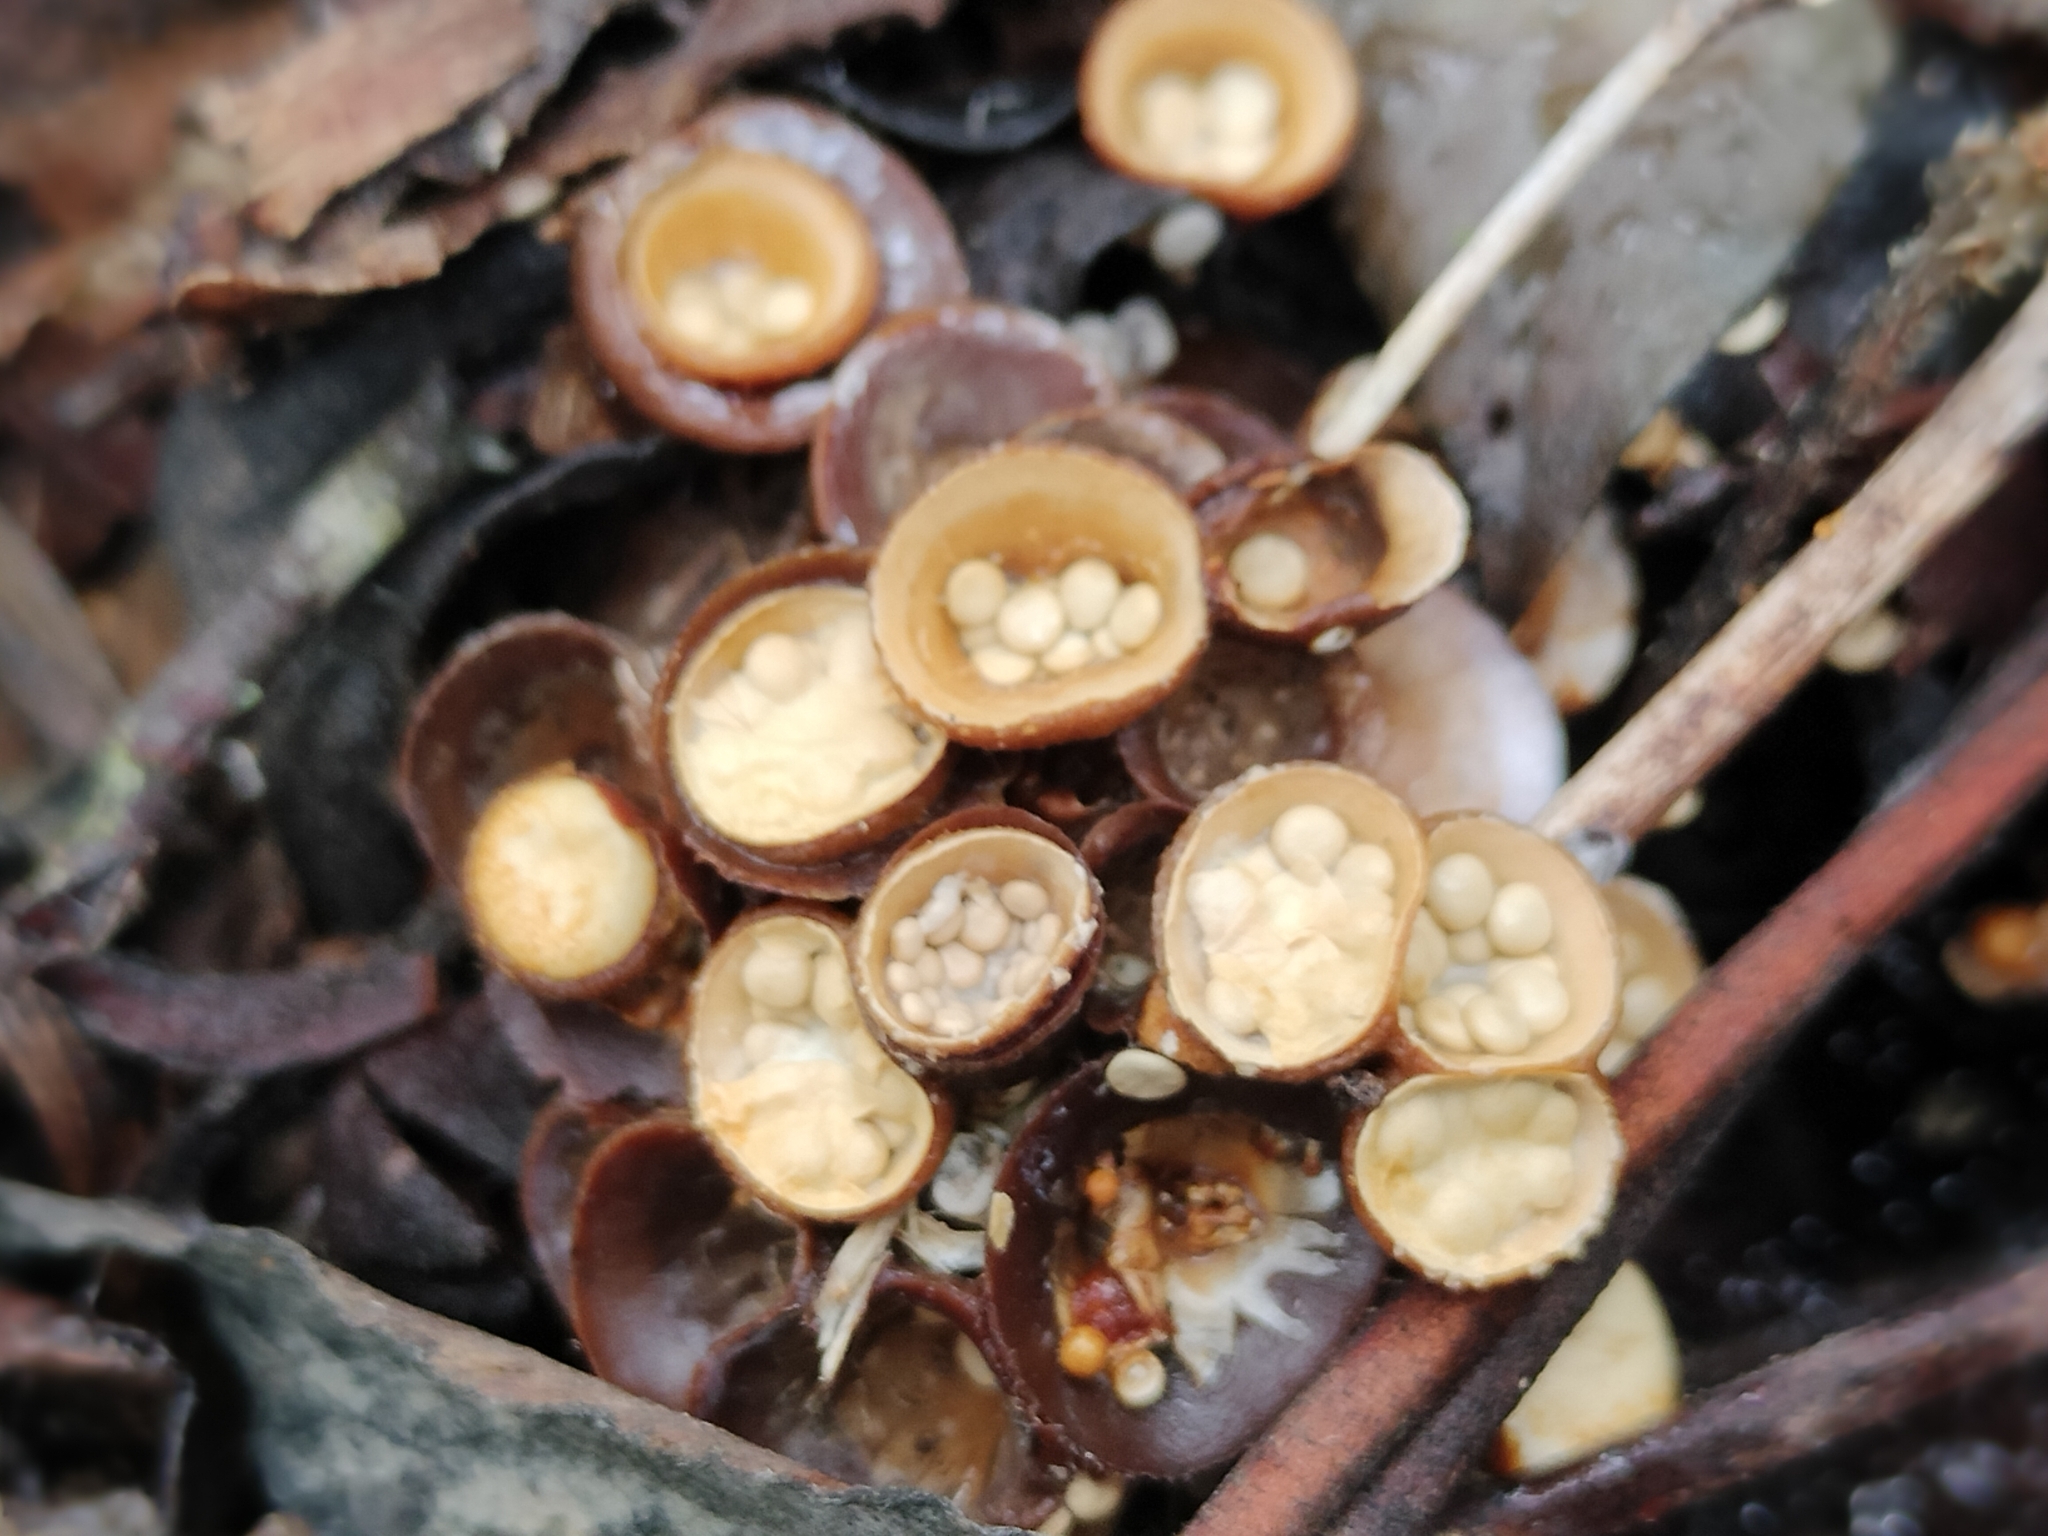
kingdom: Fungi
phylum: Basidiomycota
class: Agaricomycetes
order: Agaricales
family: Nidulariaceae
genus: Crucibulum
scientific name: Crucibulum laeve
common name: Common bird's nest
